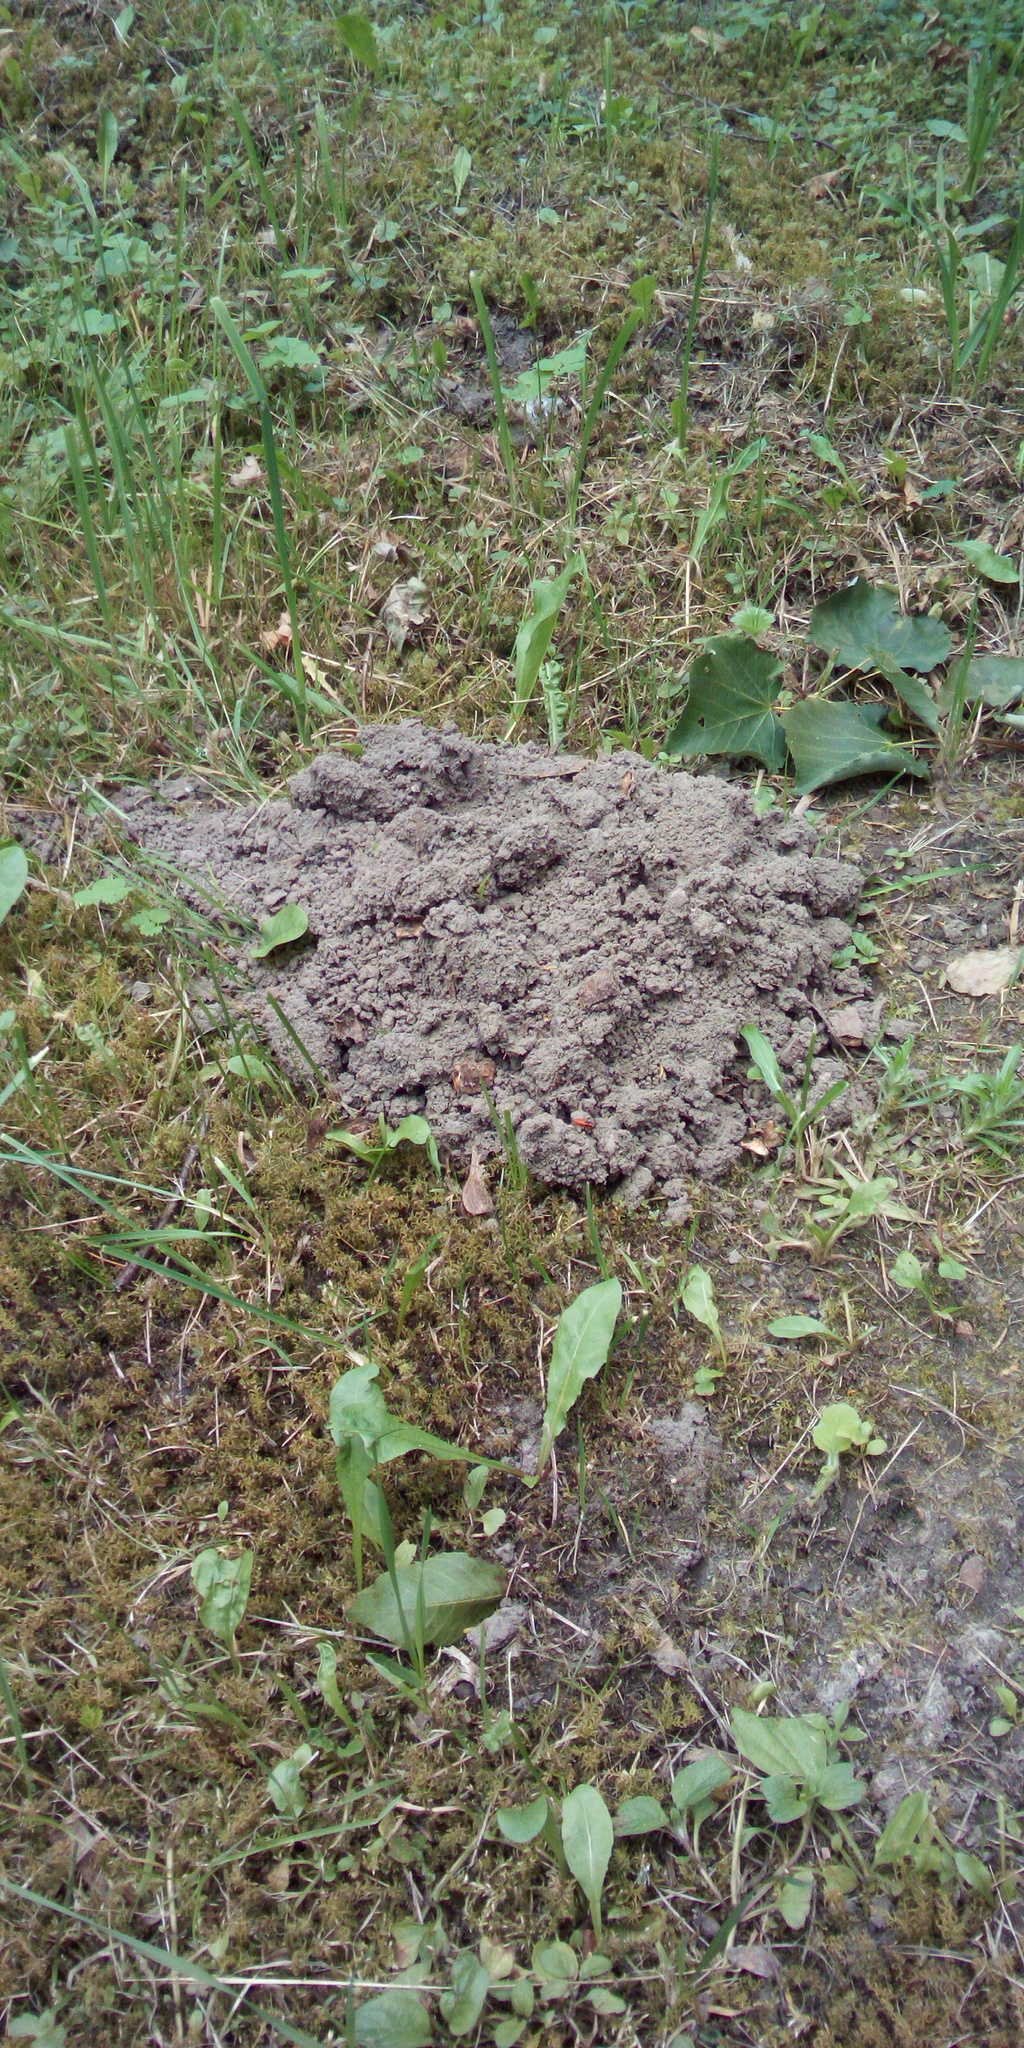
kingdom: Animalia
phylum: Chordata
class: Mammalia
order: Soricomorpha
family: Talpidae
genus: Talpa
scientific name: Talpa europaea
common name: European mole
